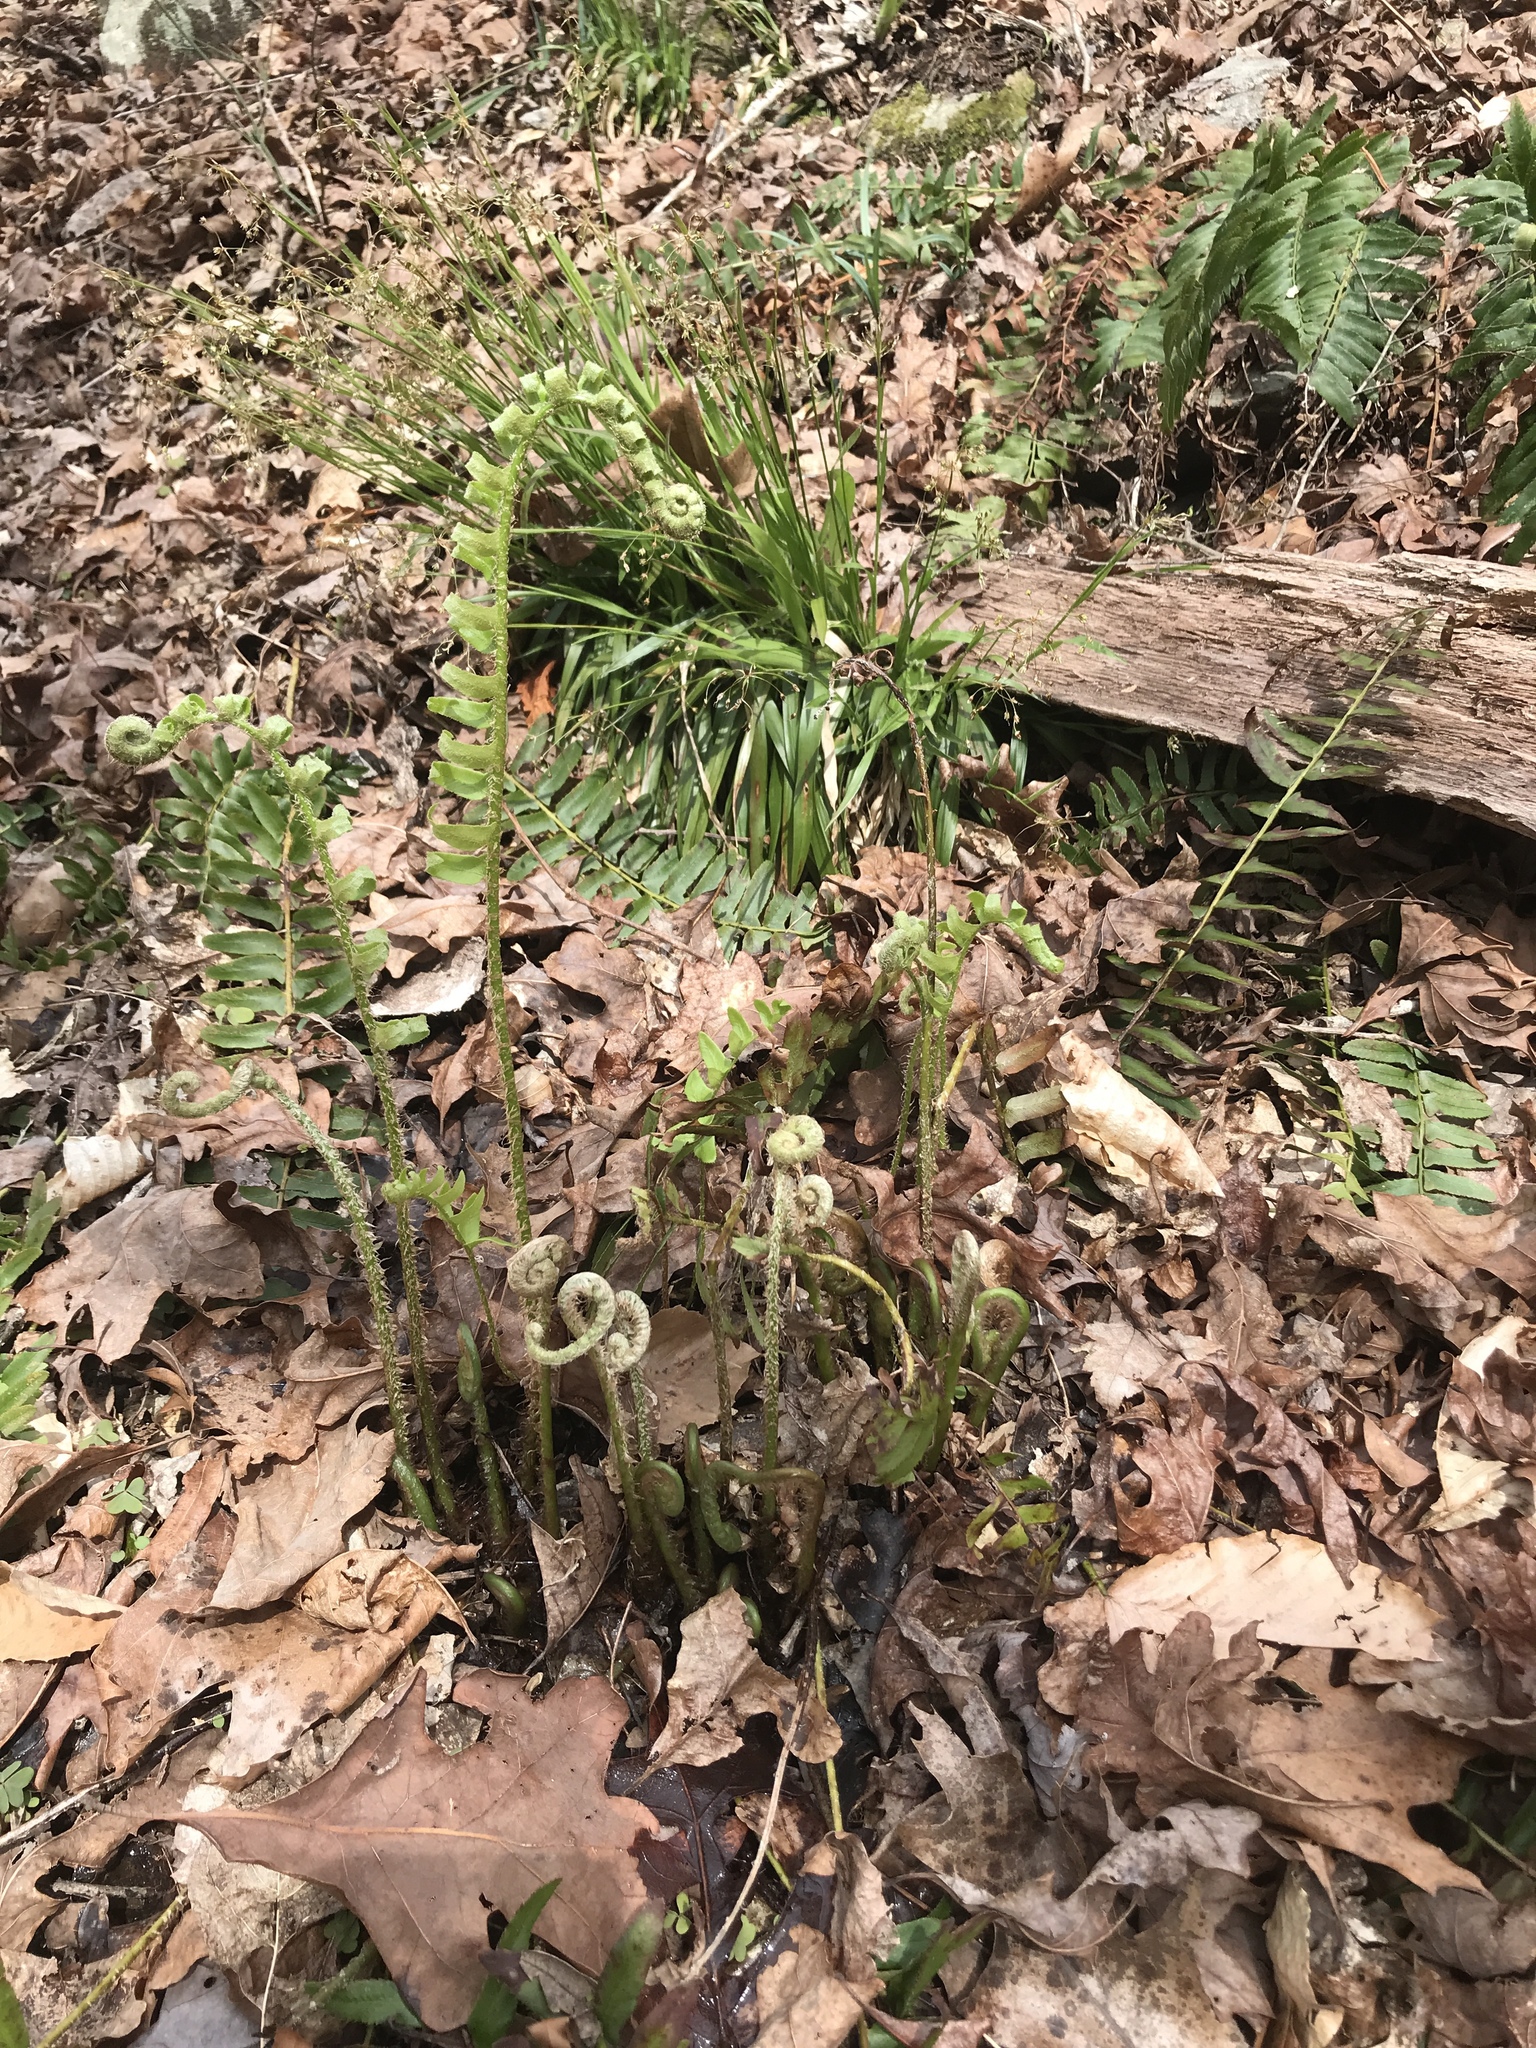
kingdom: Plantae
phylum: Tracheophyta
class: Polypodiopsida
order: Polypodiales
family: Dryopteridaceae
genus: Polystichum
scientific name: Polystichum acrostichoides
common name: Christmas fern
